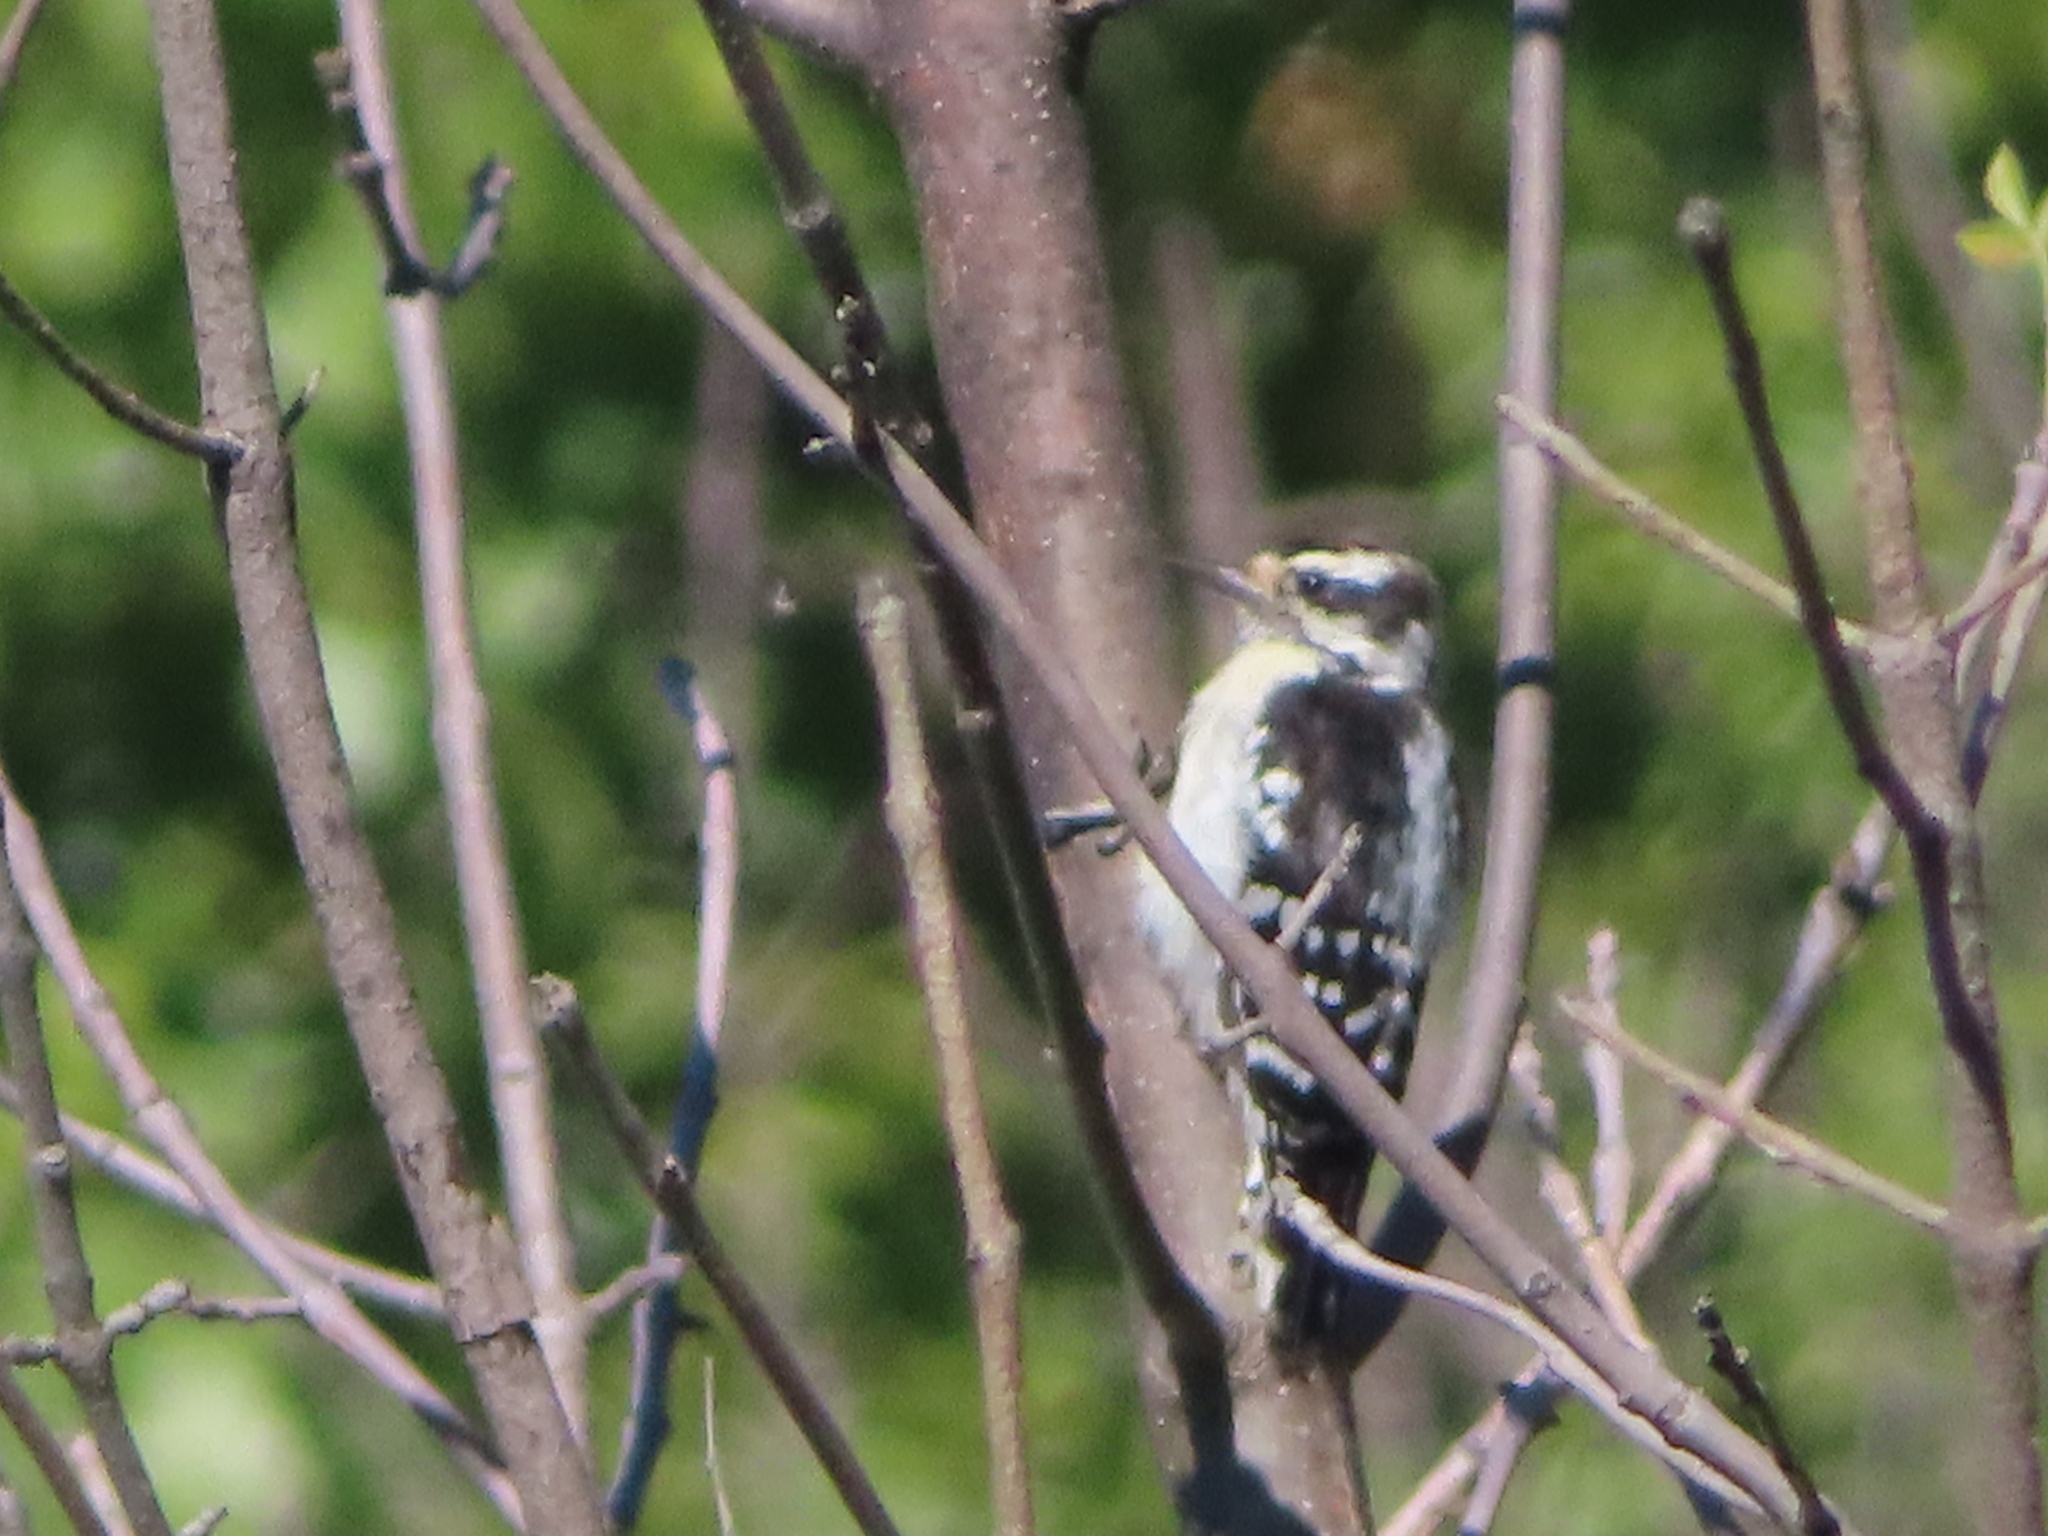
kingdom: Animalia
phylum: Chordata
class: Aves
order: Piciformes
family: Picidae
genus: Dryobates
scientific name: Dryobates pubescens
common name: Downy woodpecker
